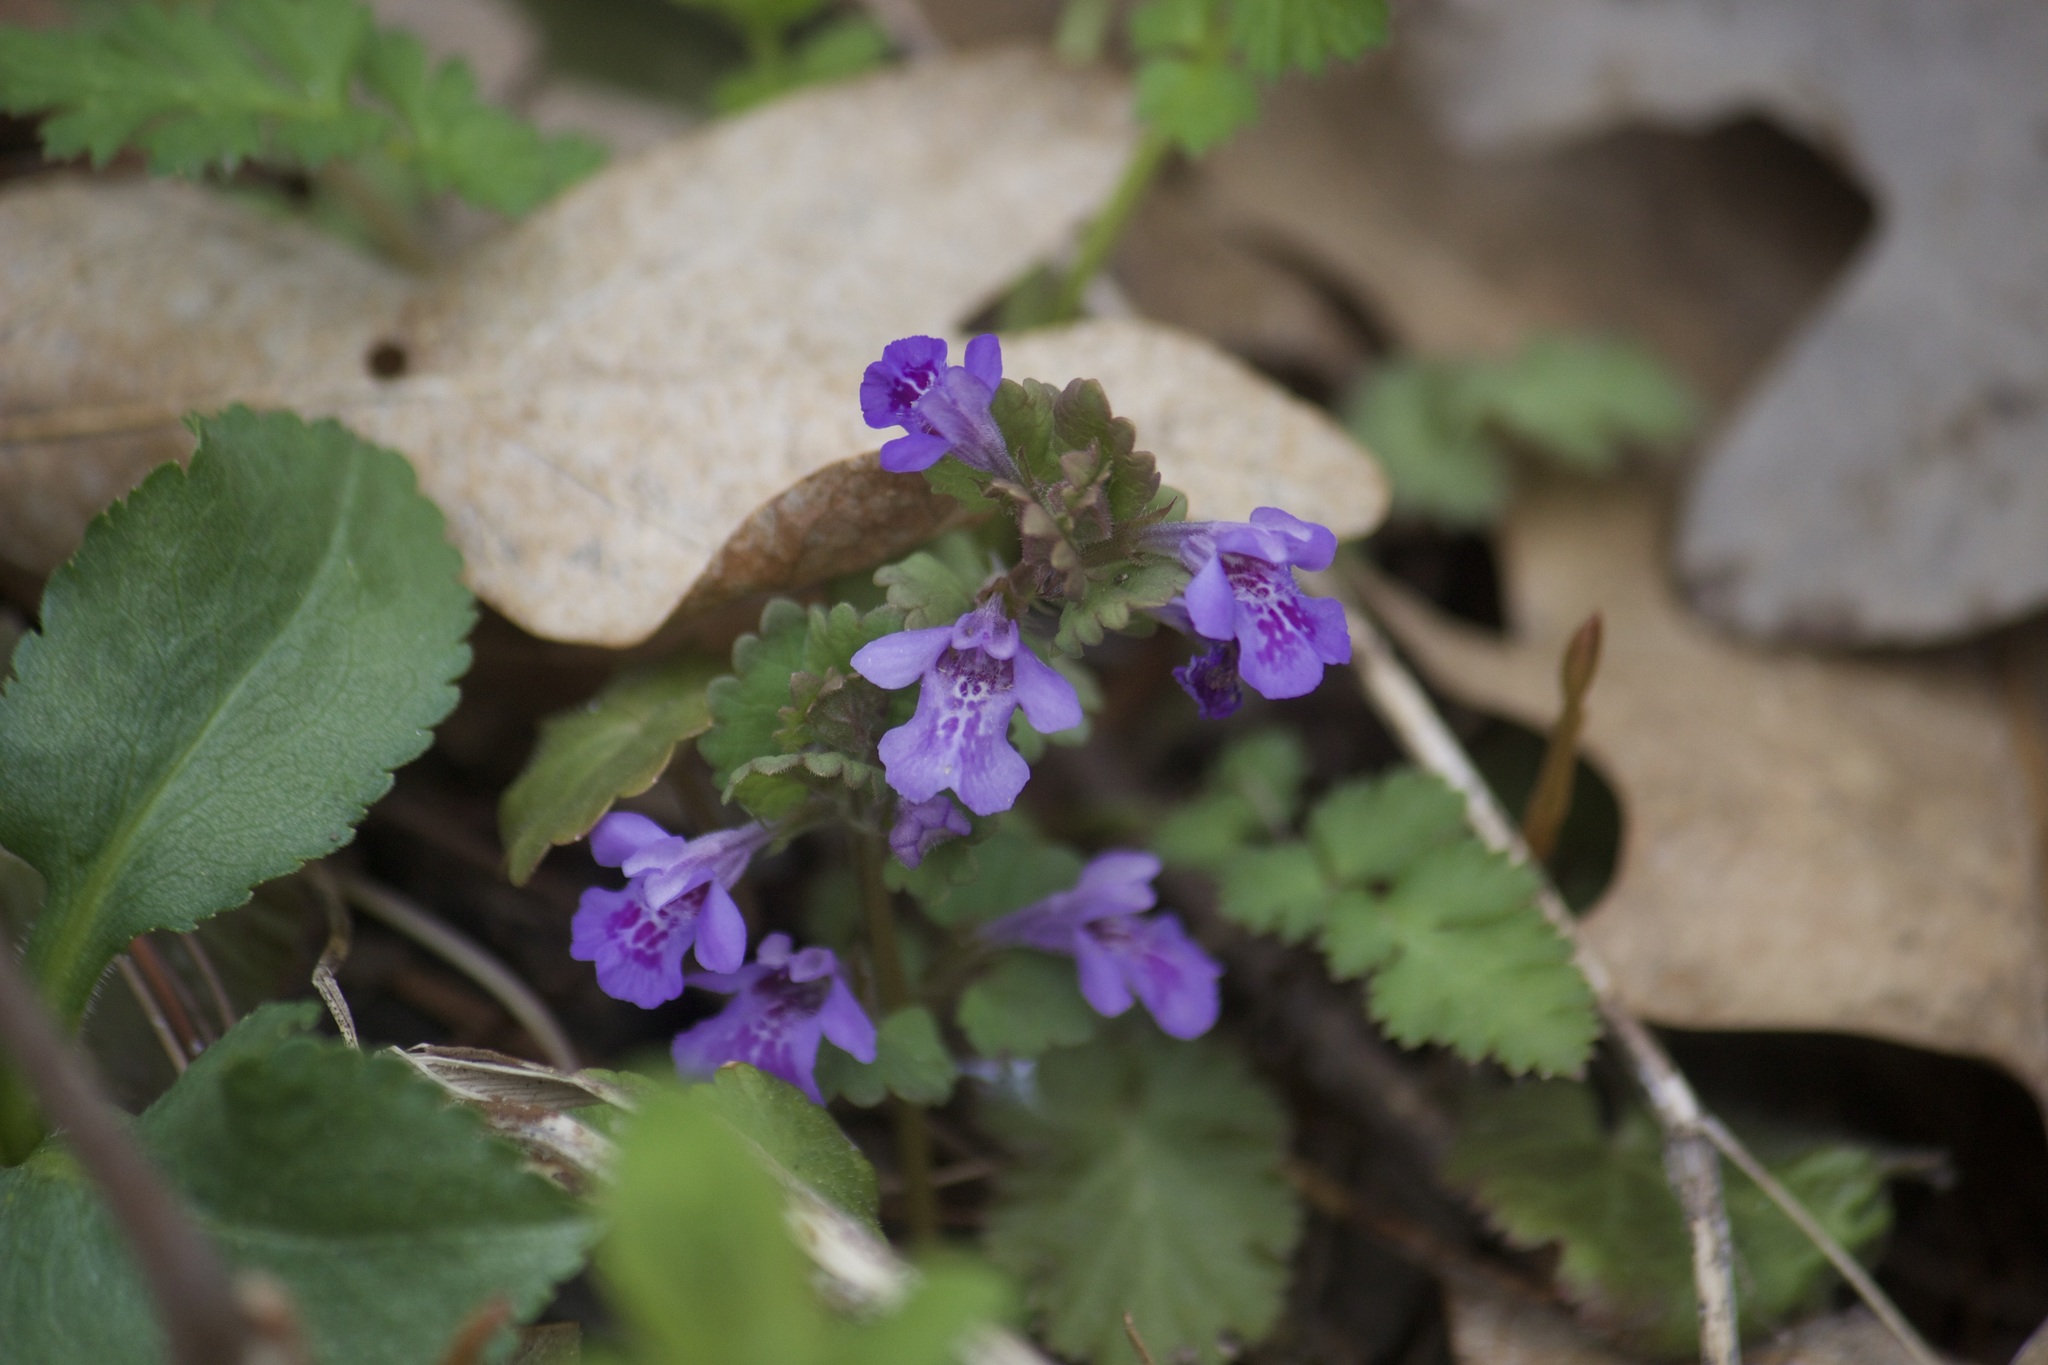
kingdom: Plantae
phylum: Tracheophyta
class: Magnoliopsida
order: Lamiales
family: Lamiaceae
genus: Glechoma
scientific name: Glechoma hederacea
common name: Ground ivy
